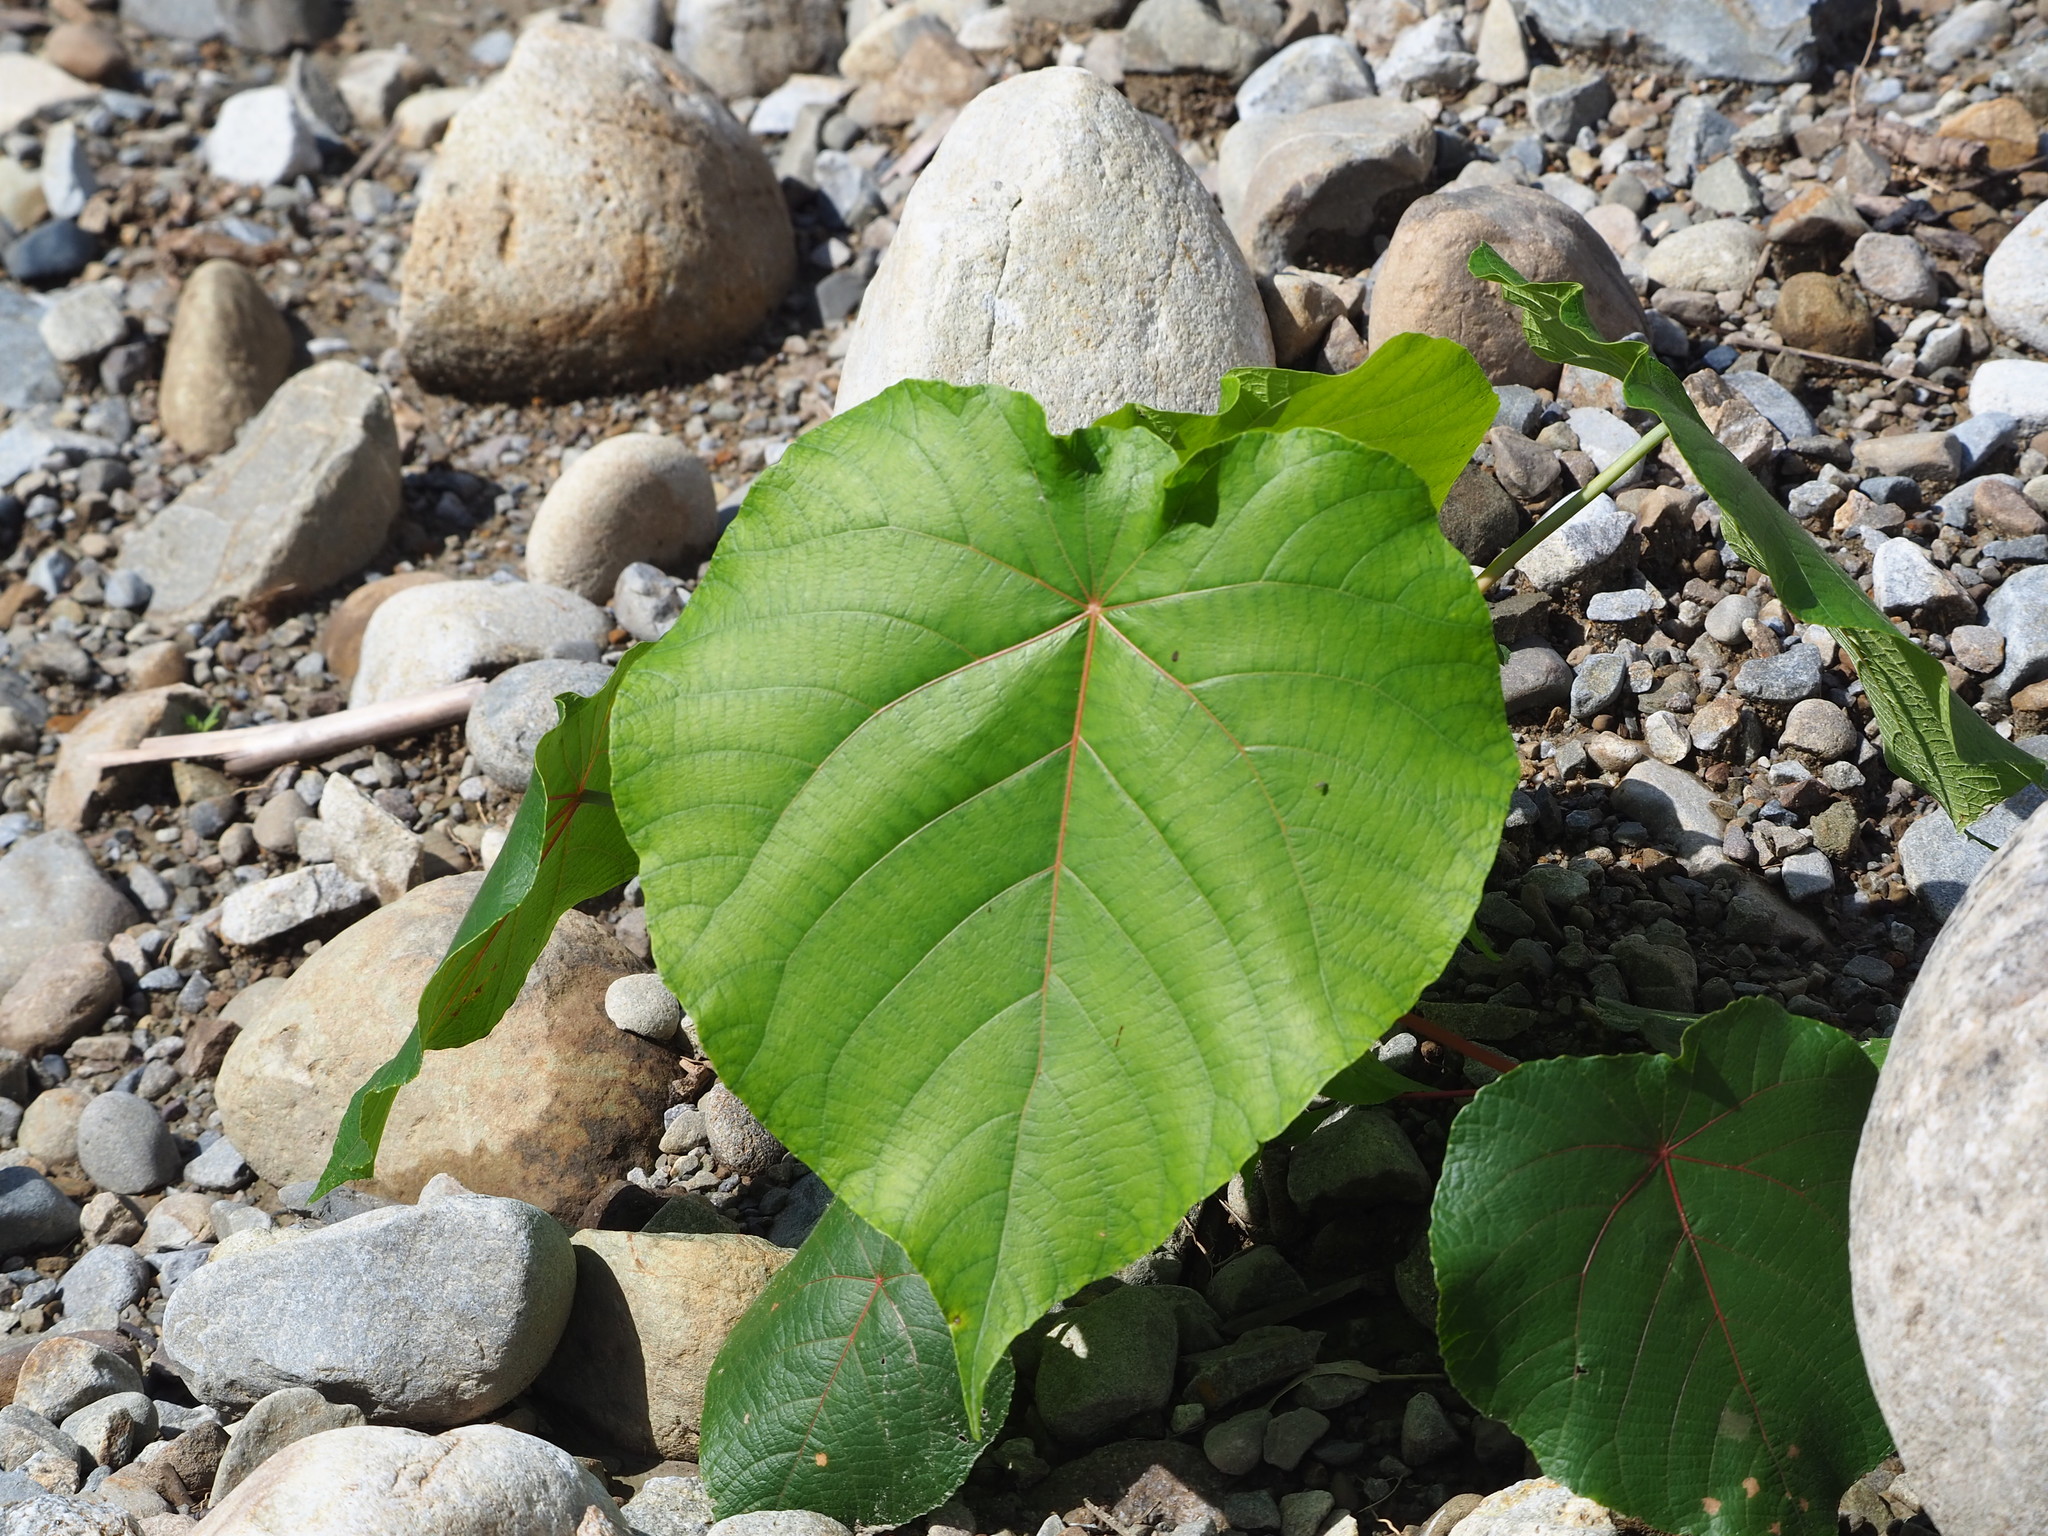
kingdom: Plantae
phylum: Tracheophyta
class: Magnoliopsida
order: Malpighiales
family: Euphorbiaceae
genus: Macaranga
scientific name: Macaranga tanarius
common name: Parasol leaf tree
